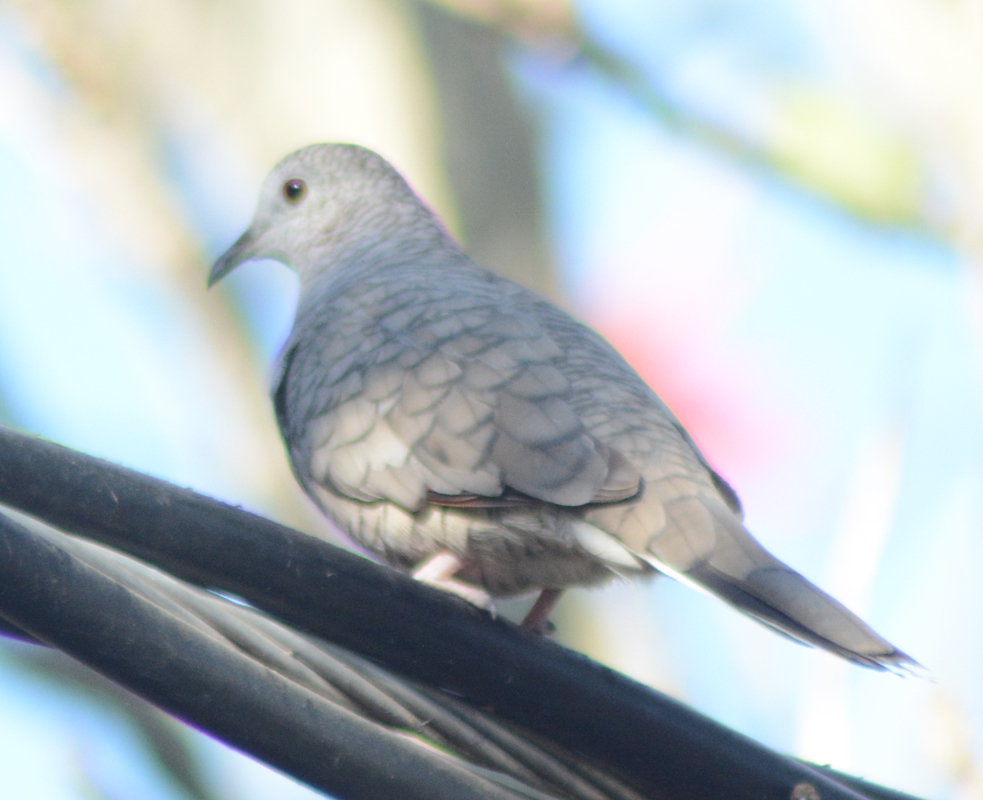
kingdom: Animalia
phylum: Chordata
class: Aves
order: Columbiformes
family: Columbidae
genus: Columbina
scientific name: Columbina inca
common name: Inca dove
